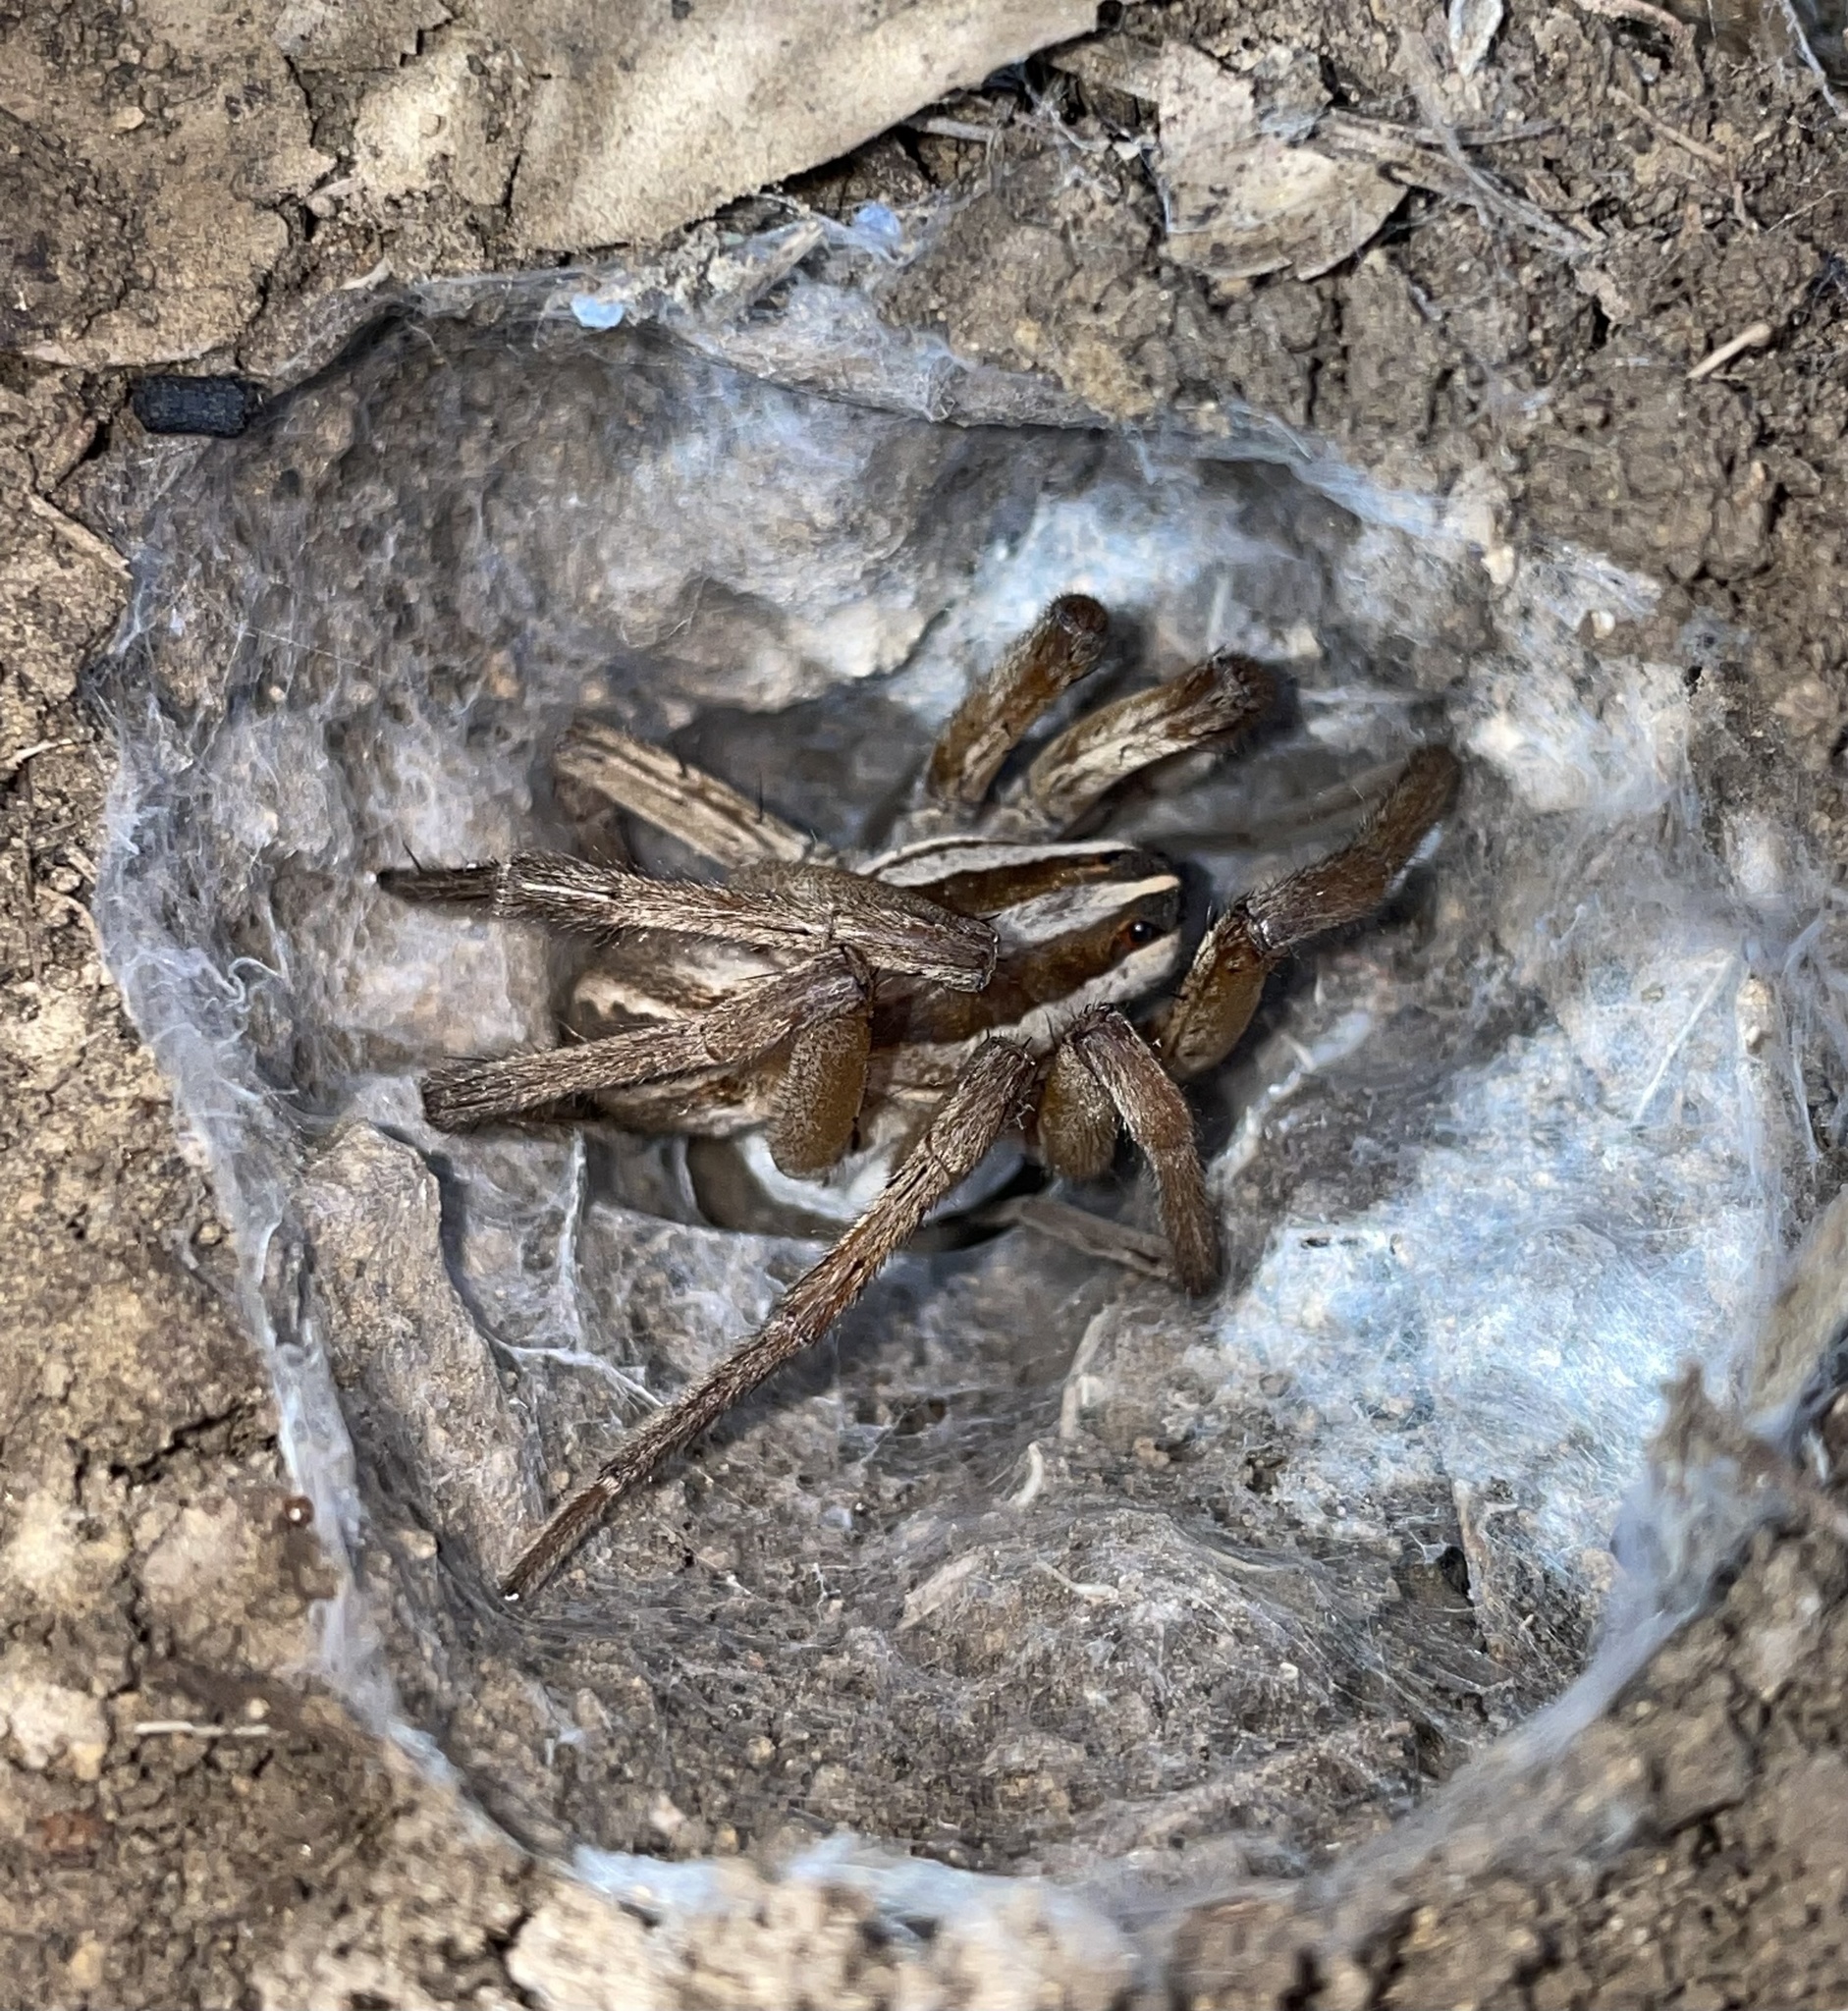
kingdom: Animalia
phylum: Arthropoda
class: Arachnida
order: Araneae
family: Lycosidae
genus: Rabidosa
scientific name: Rabidosa rabida
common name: Rabid wolf spider
